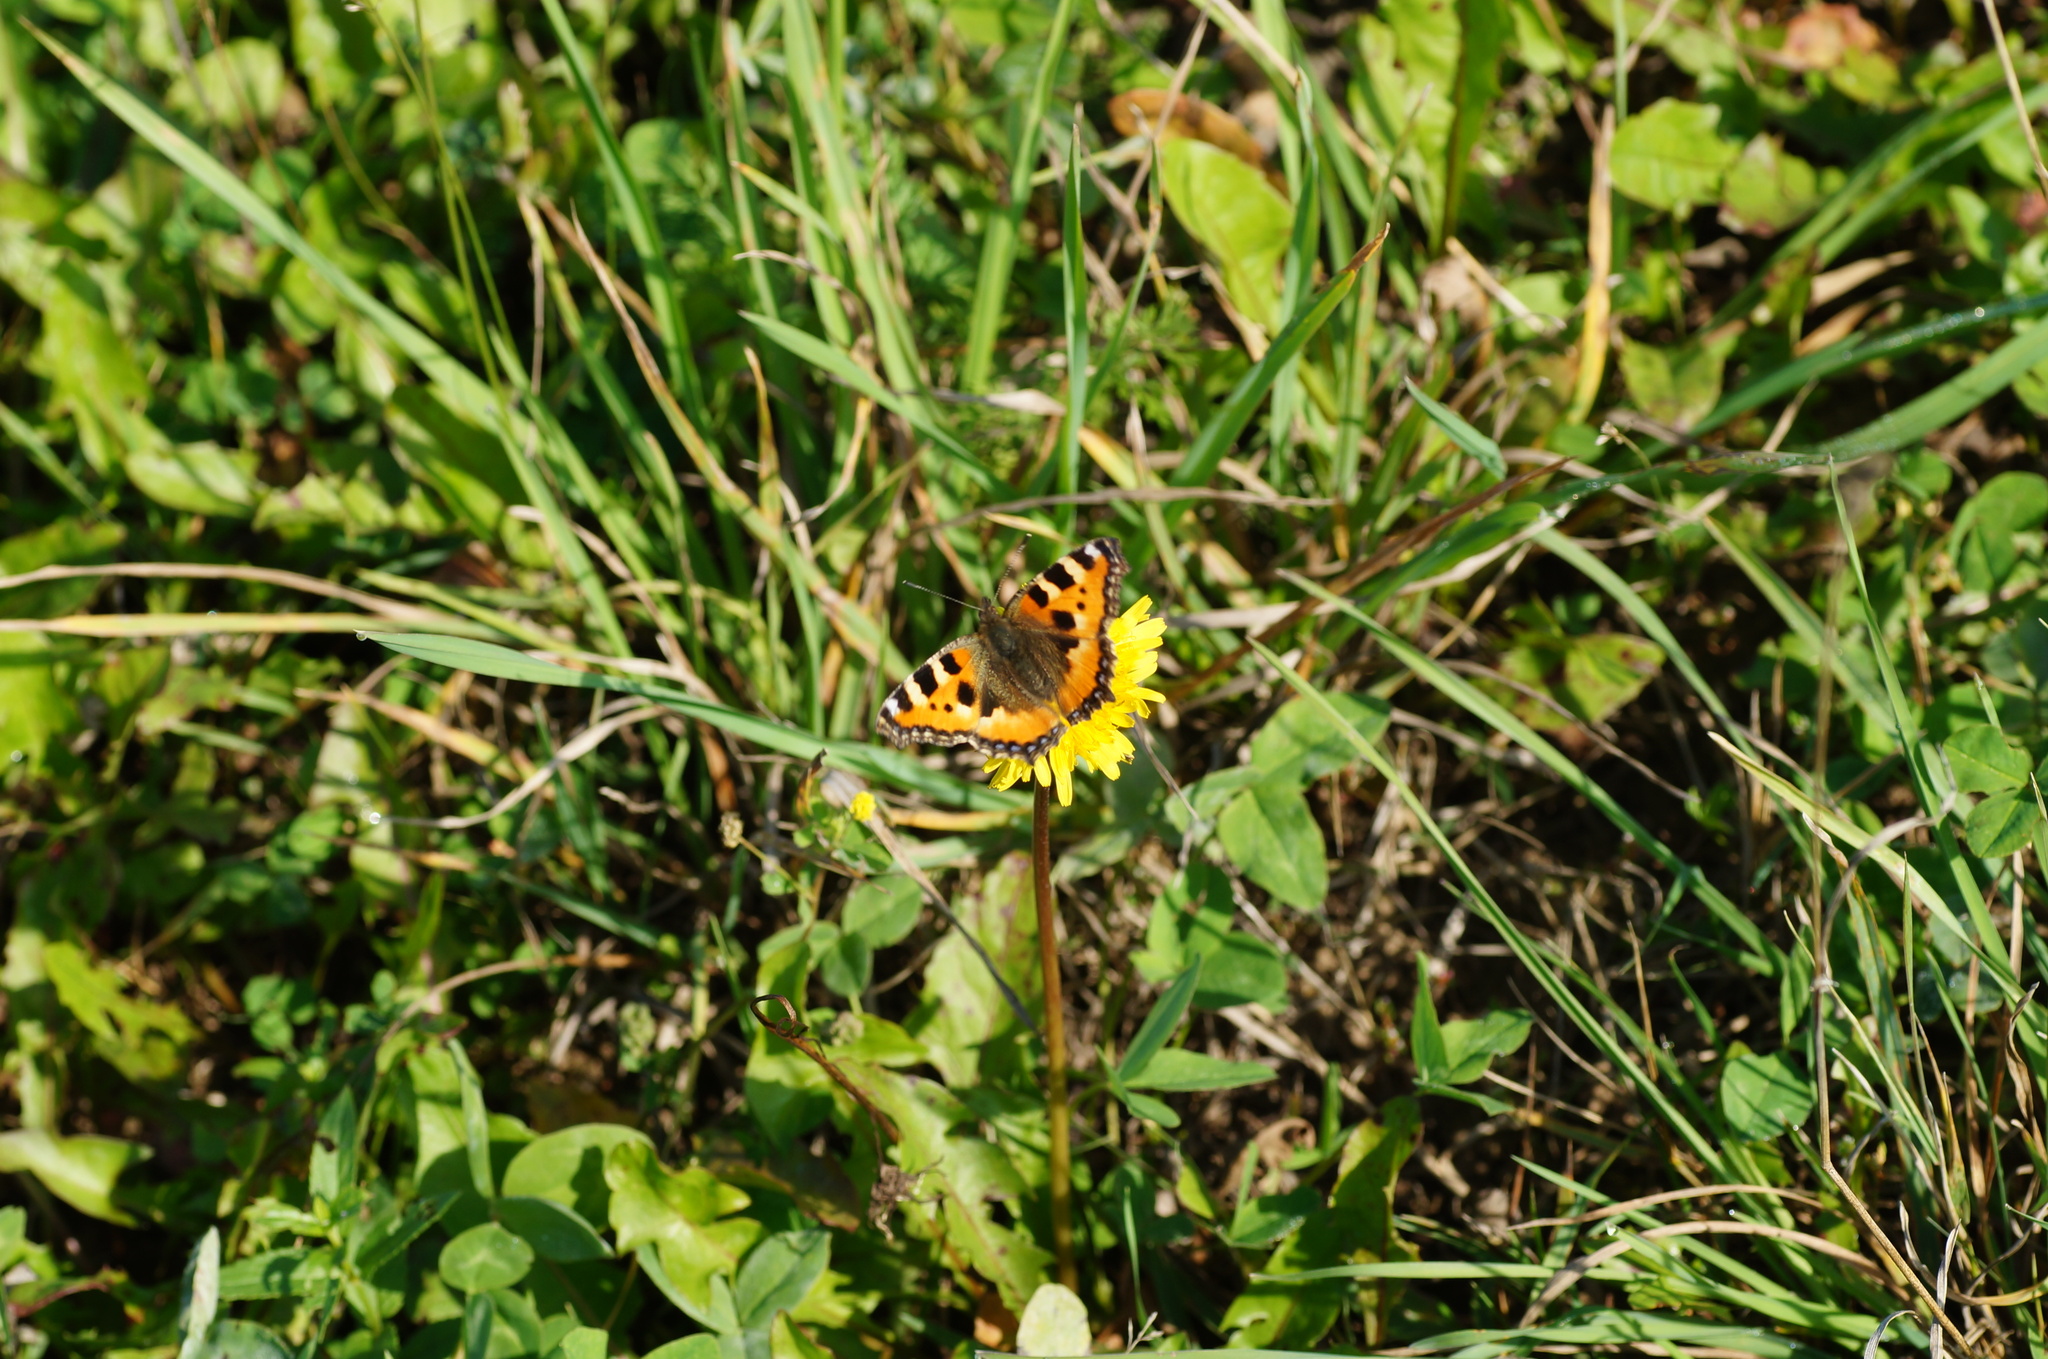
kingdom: Animalia
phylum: Arthropoda
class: Insecta
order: Lepidoptera
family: Nymphalidae
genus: Aglais
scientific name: Aglais urticae
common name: Small tortoiseshell
